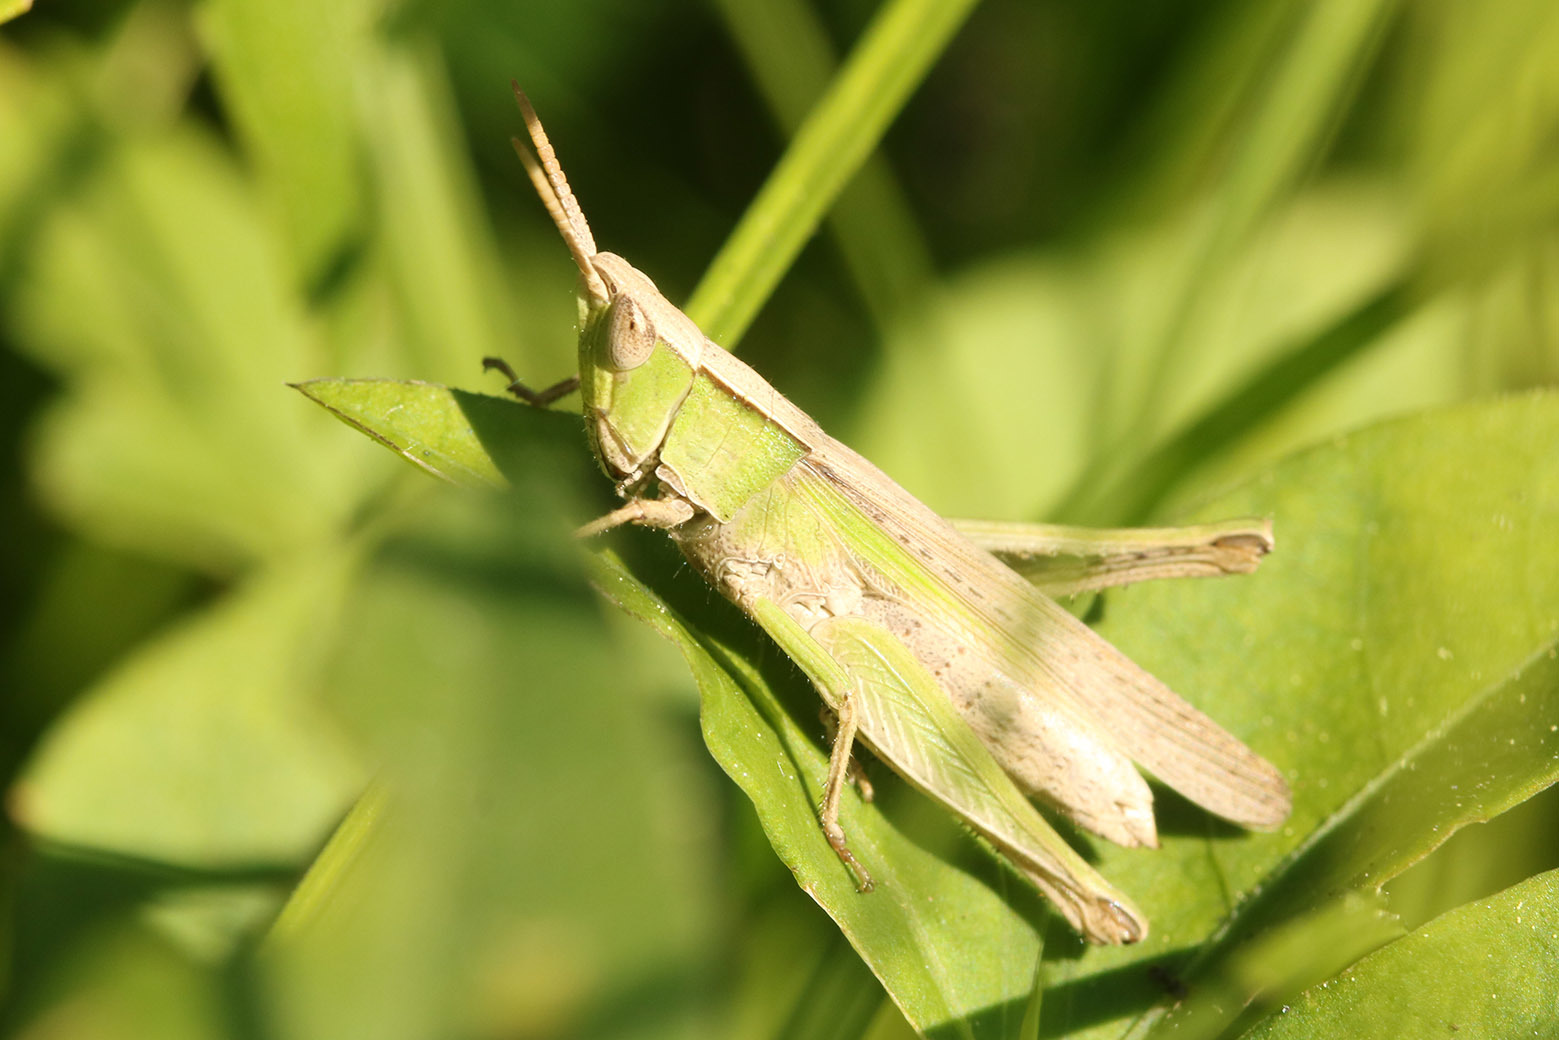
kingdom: Animalia
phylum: Arthropoda
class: Insecta
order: Orthoptera
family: Acrididae
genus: Laplatacris
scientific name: Laplatacris dispar
